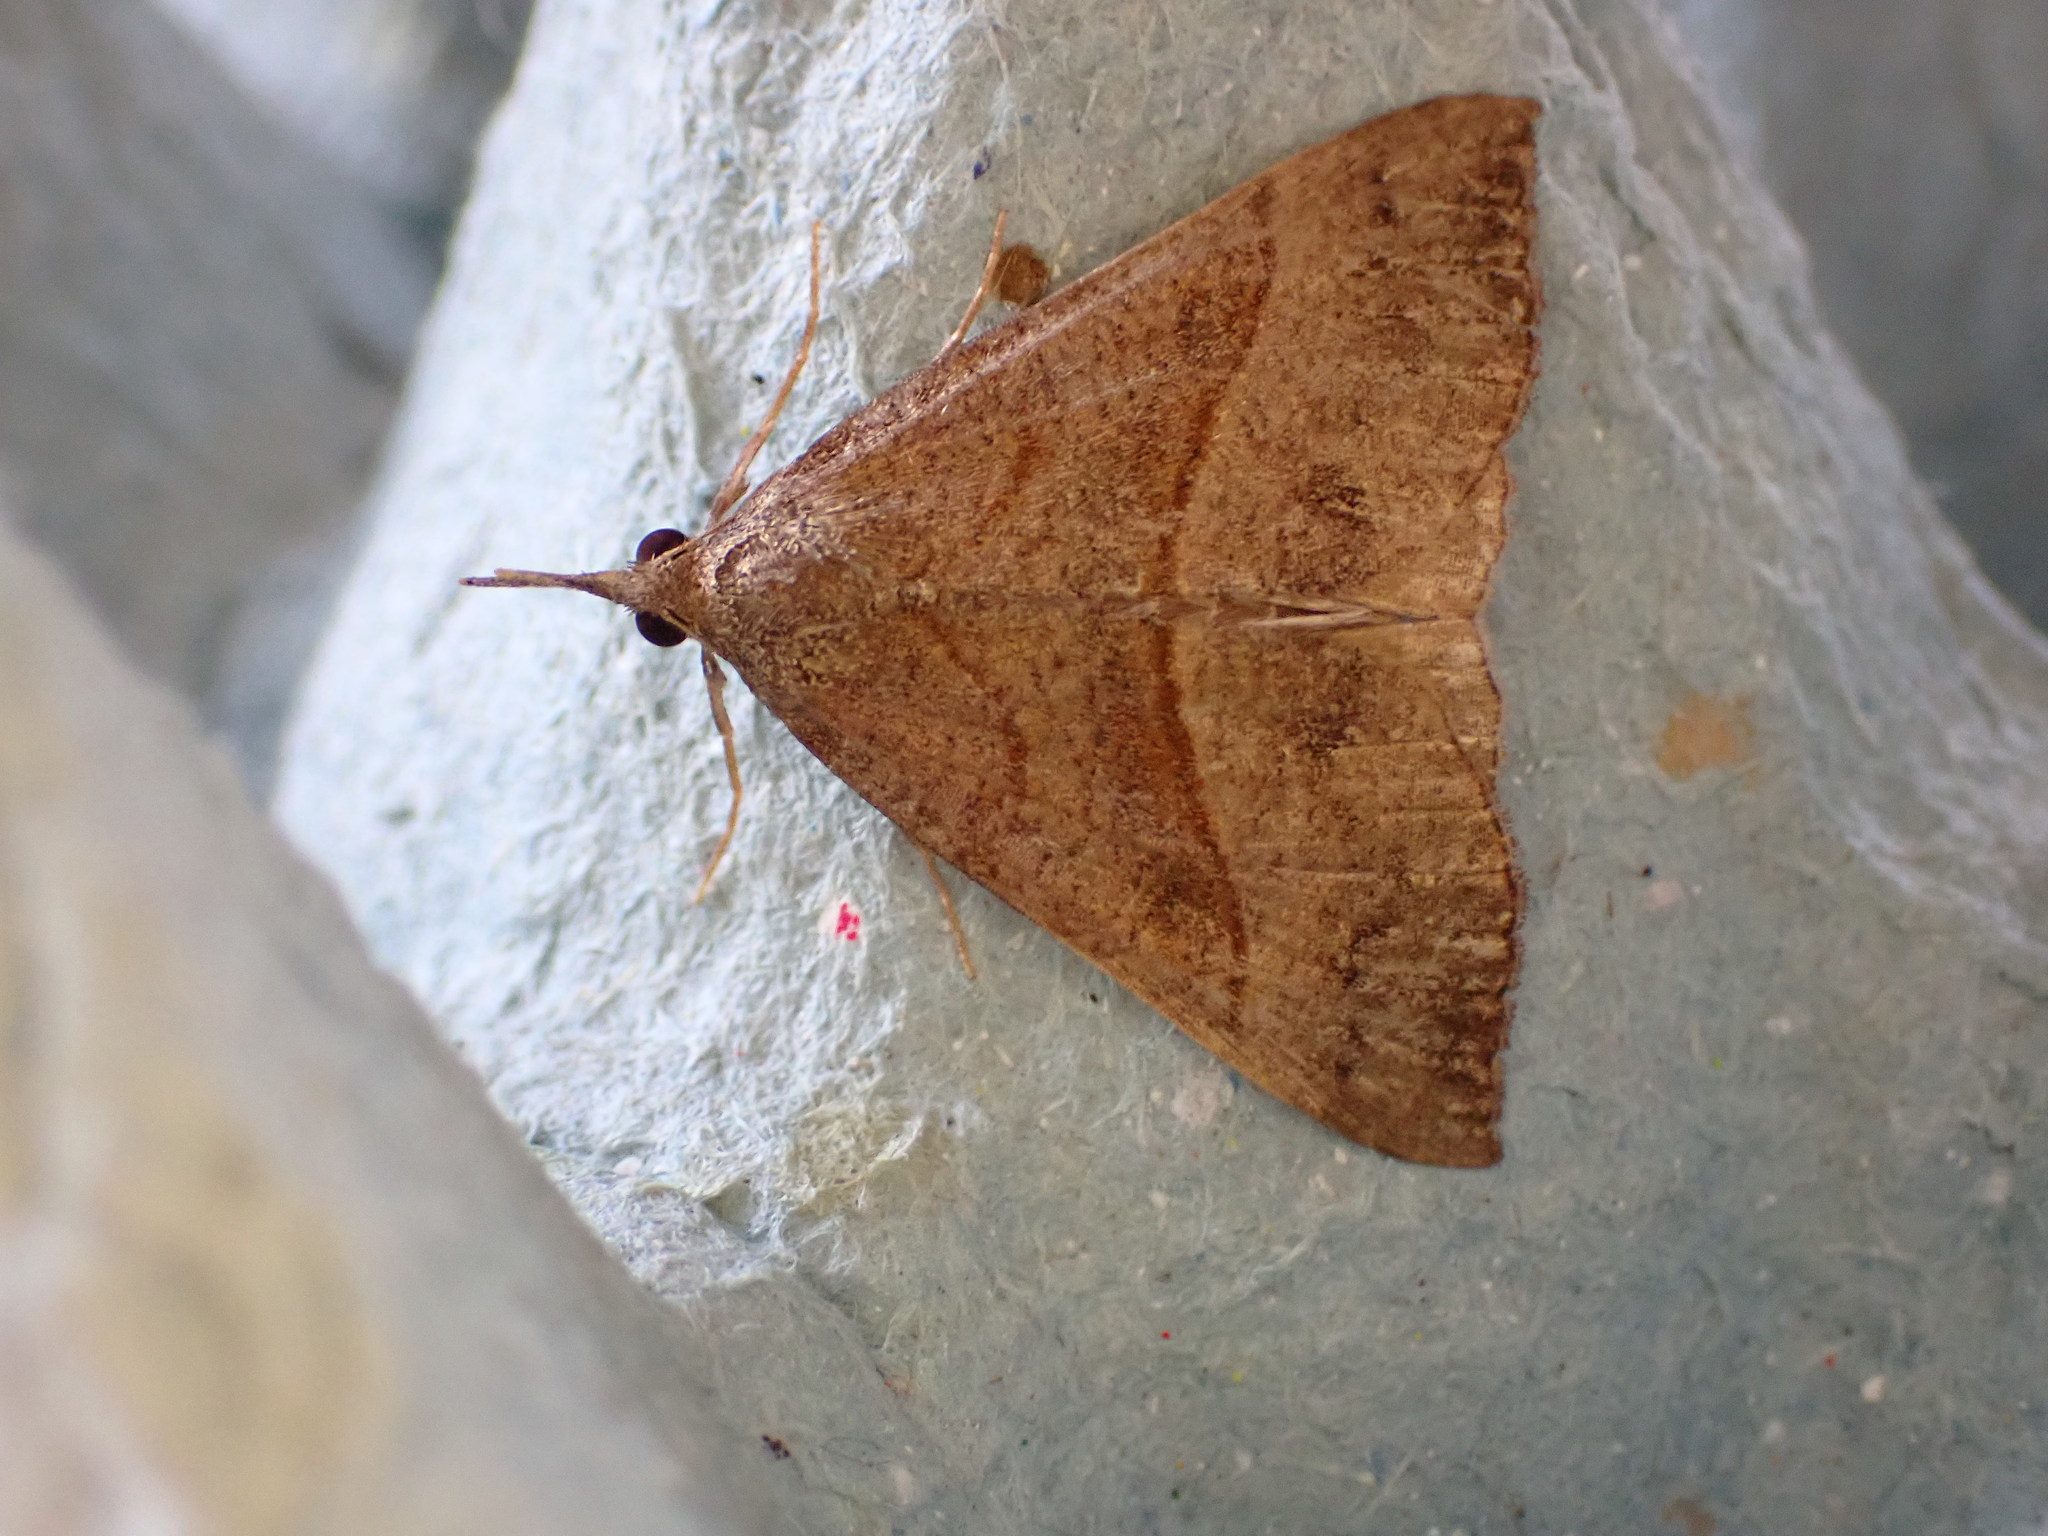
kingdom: Animalia
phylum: Arthropoda
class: Insecta
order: Lepidoptera
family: Erebidae
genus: Hypena
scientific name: Hypena proboscidalis
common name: Snout
